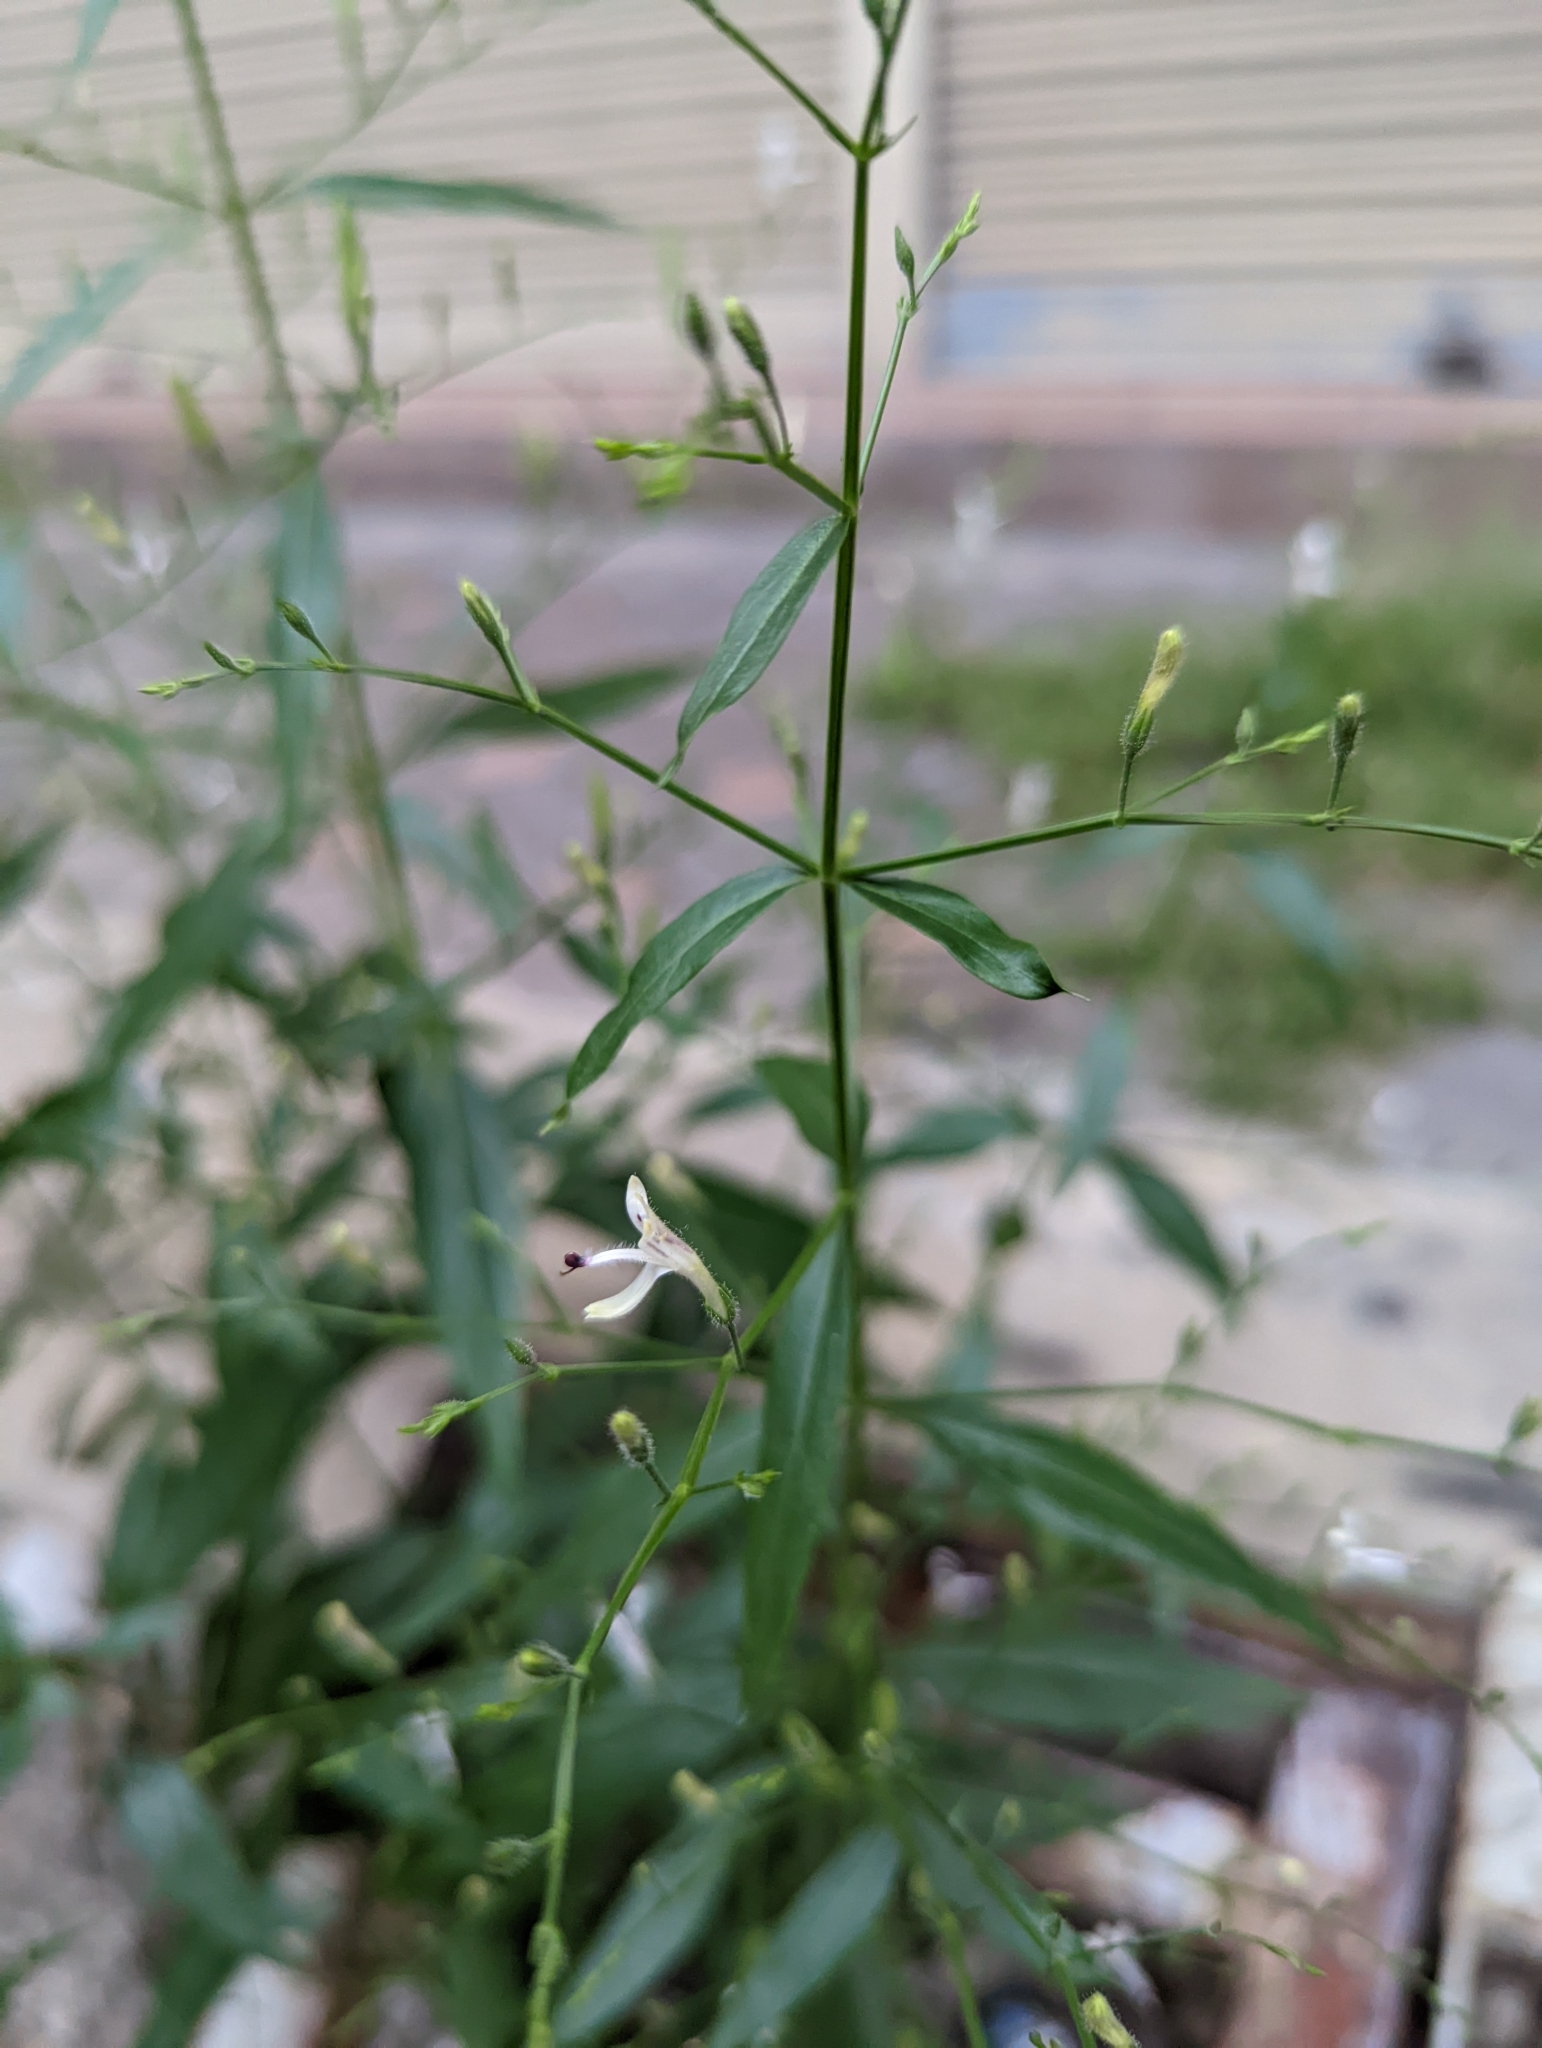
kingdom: Plantae
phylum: Tracheophyta
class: Magnoliopsida
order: Lamiales
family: Acanthaceae
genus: Andrographis
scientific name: Andrographis paniculata
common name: Green chireta
